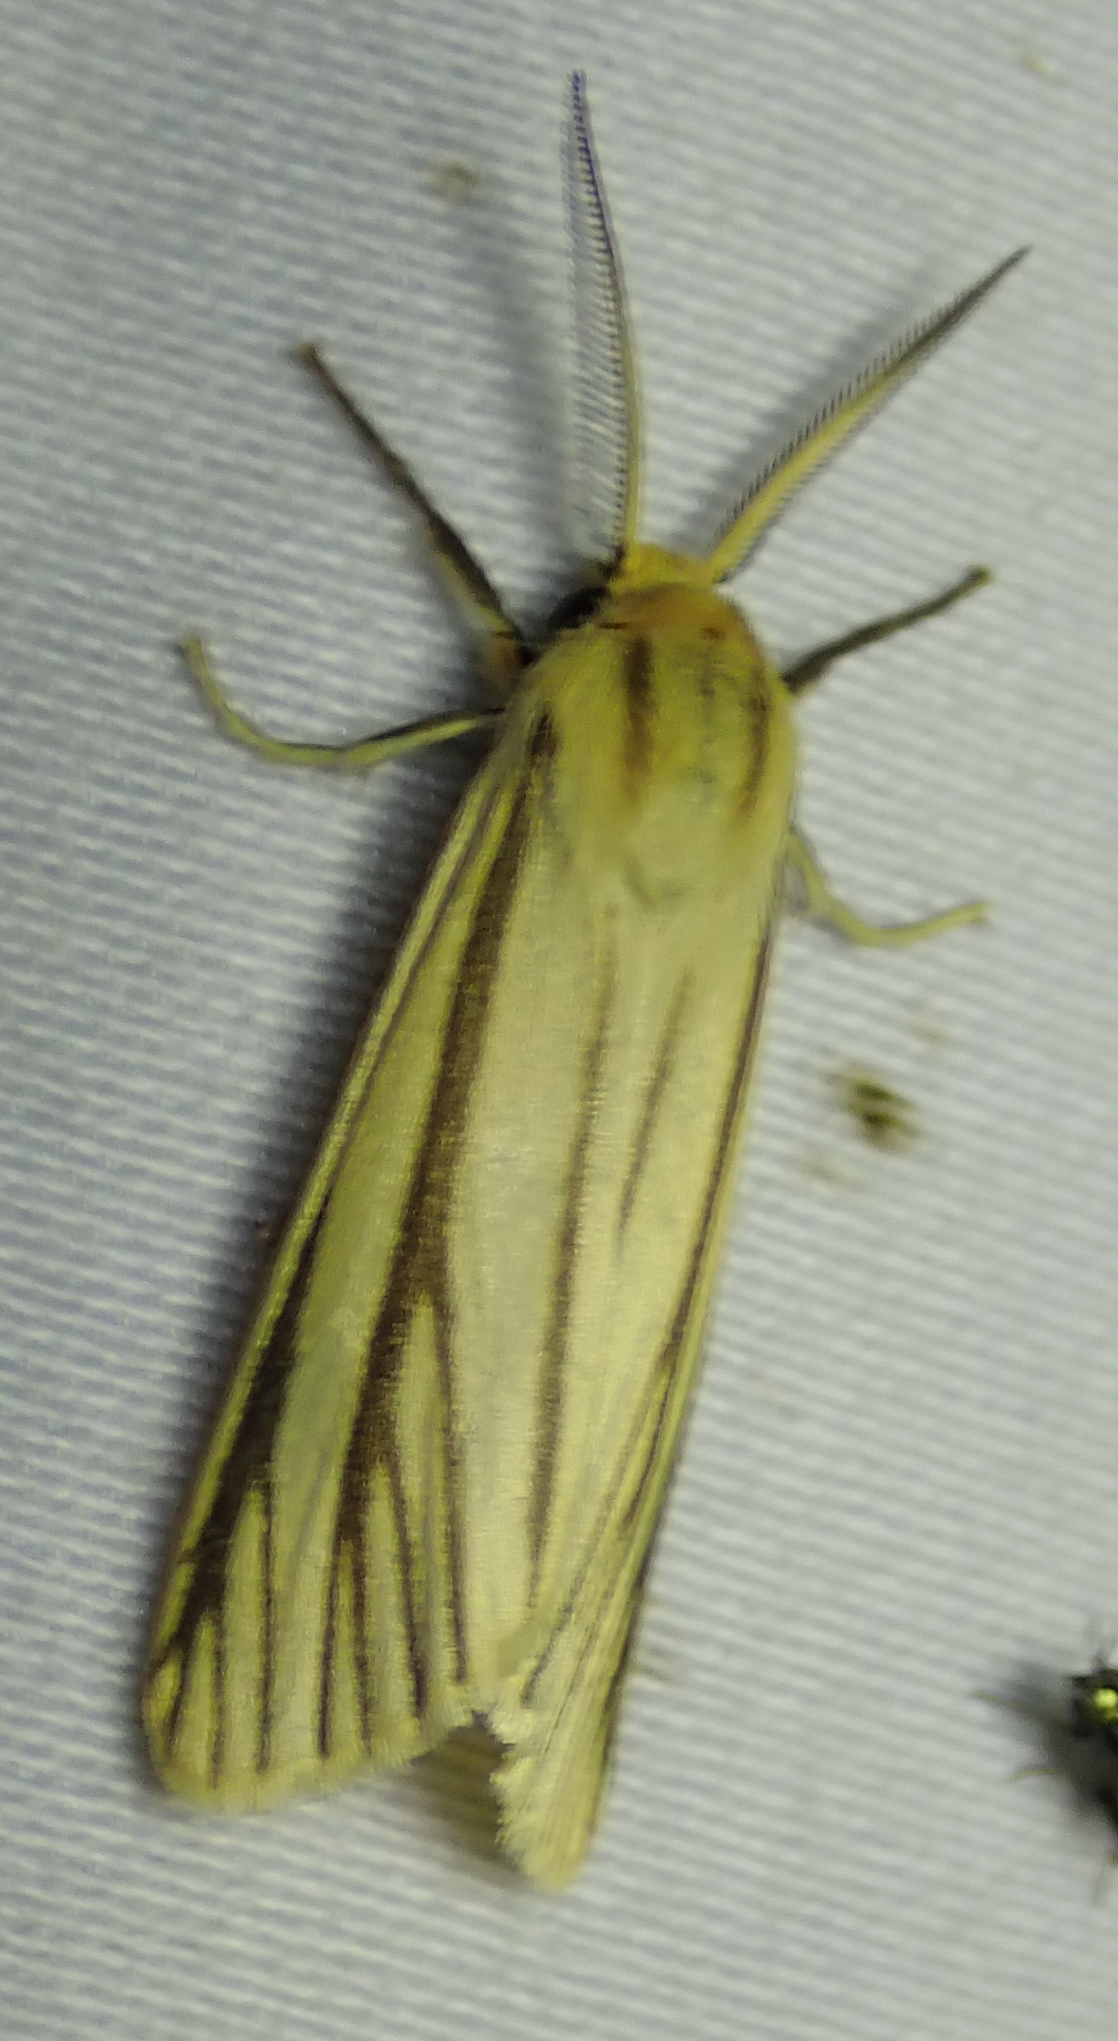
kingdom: Animalia
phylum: Arthropoda
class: Insecta
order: Lepidoptera
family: Erebidae
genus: Poecilarctia
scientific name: Poecilarctia venata
